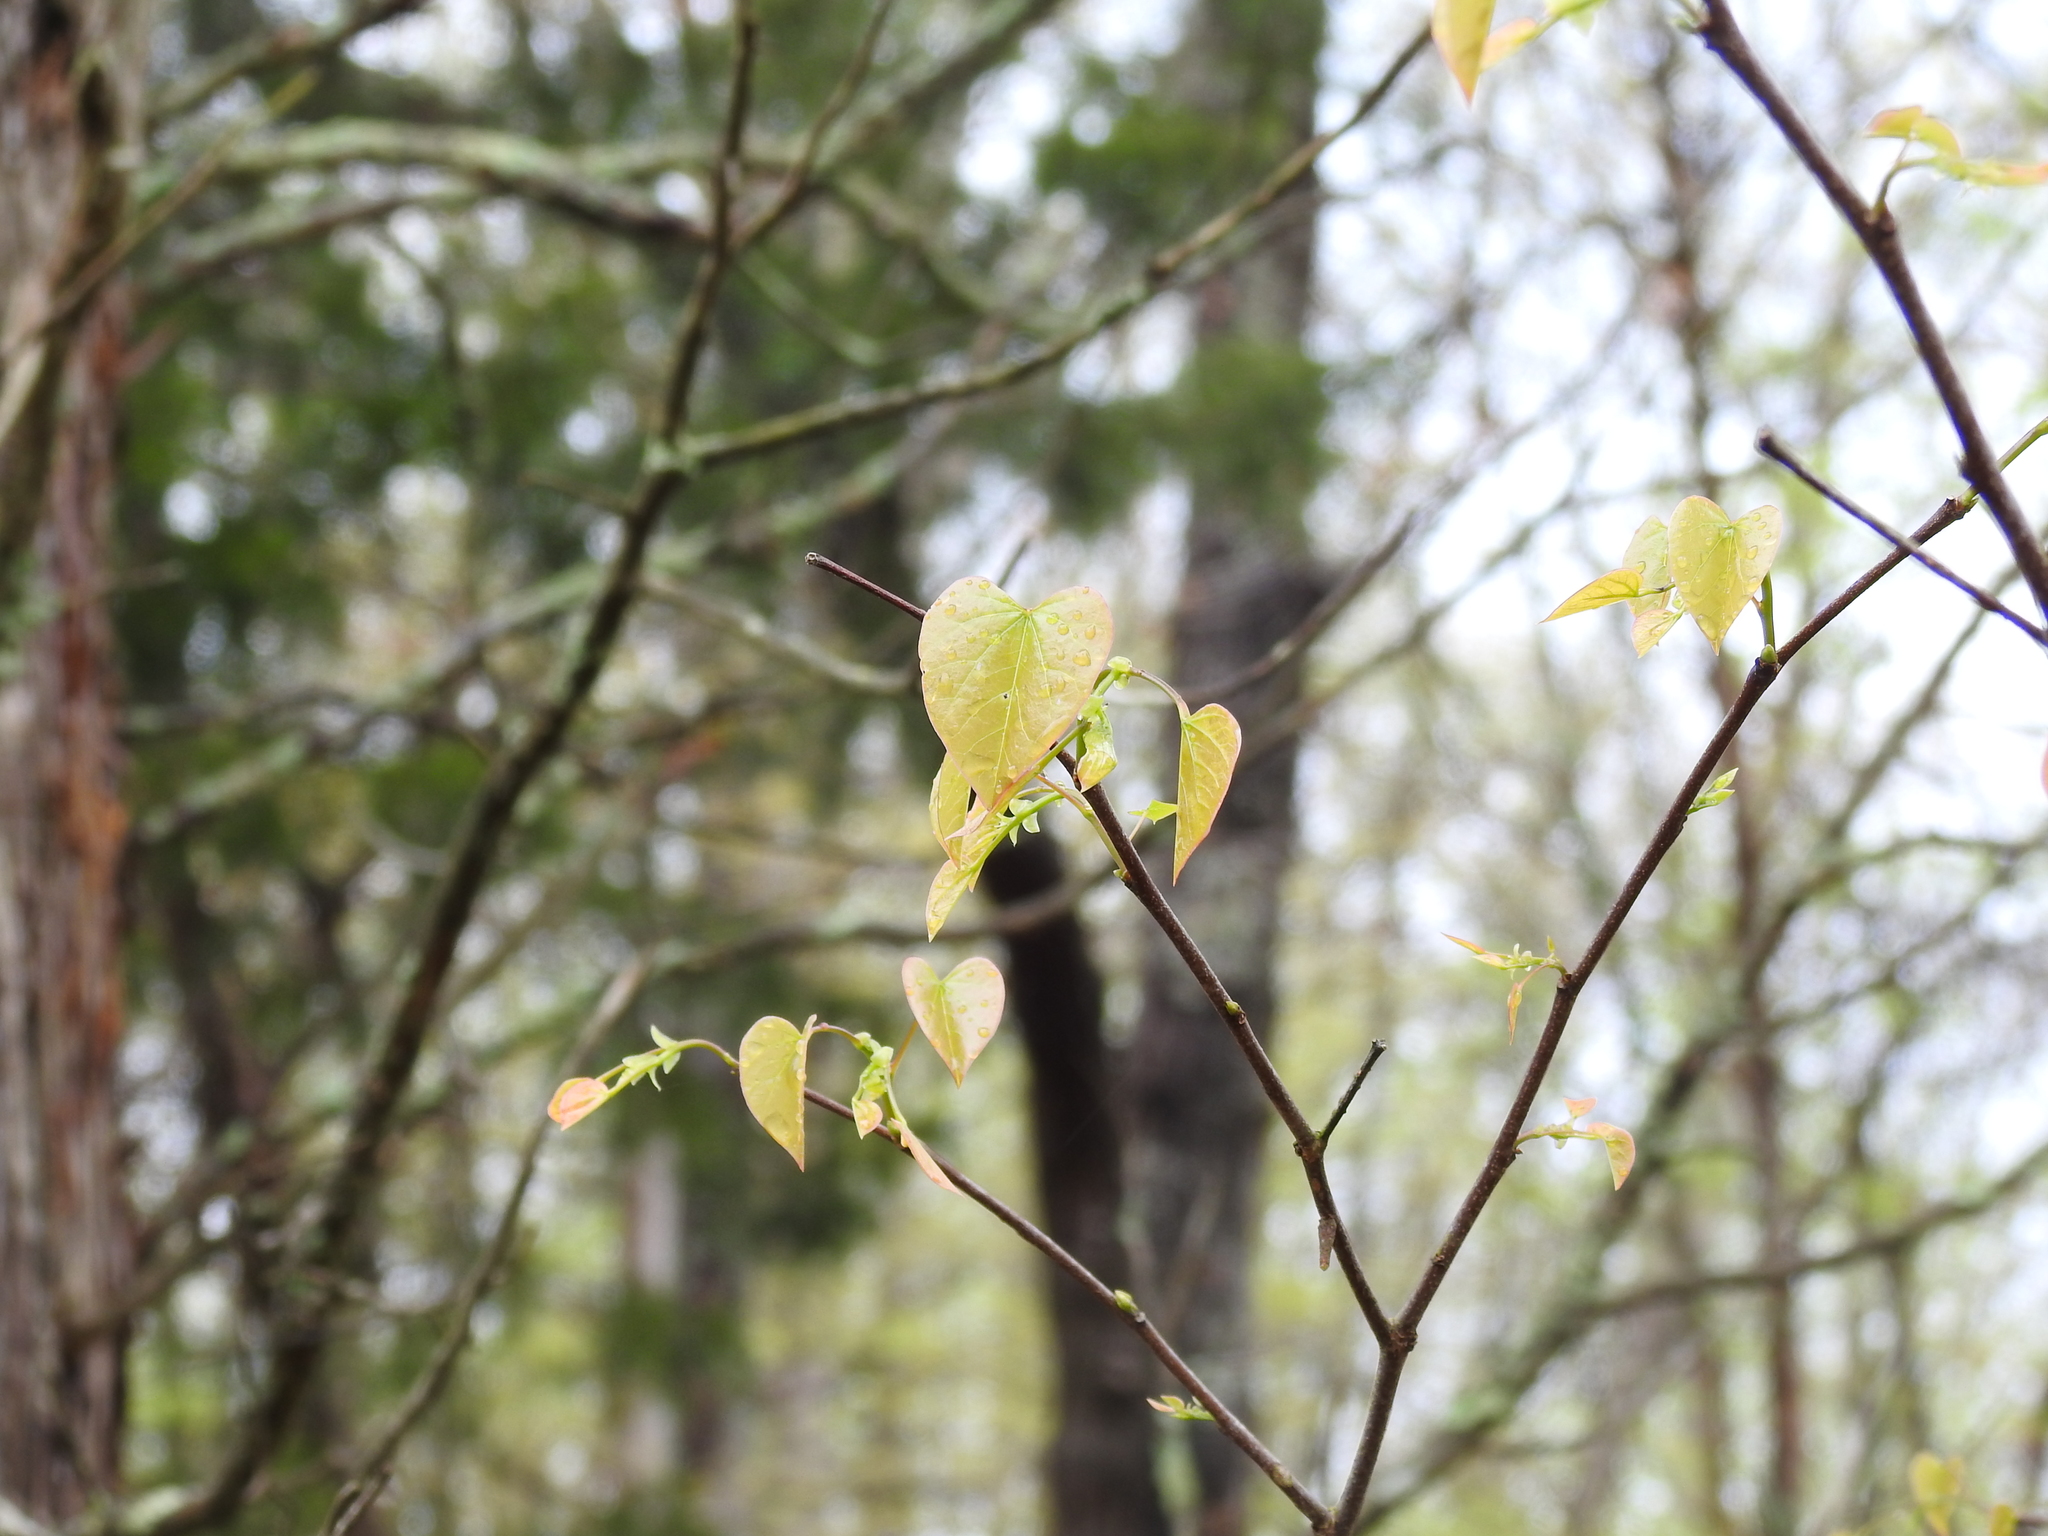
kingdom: Plantae
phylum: Tracheophyta
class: Magnoliopsida
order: Fabales
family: Fabaceae
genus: Cercis
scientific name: Cercis canadensis
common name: Eastern redbud
